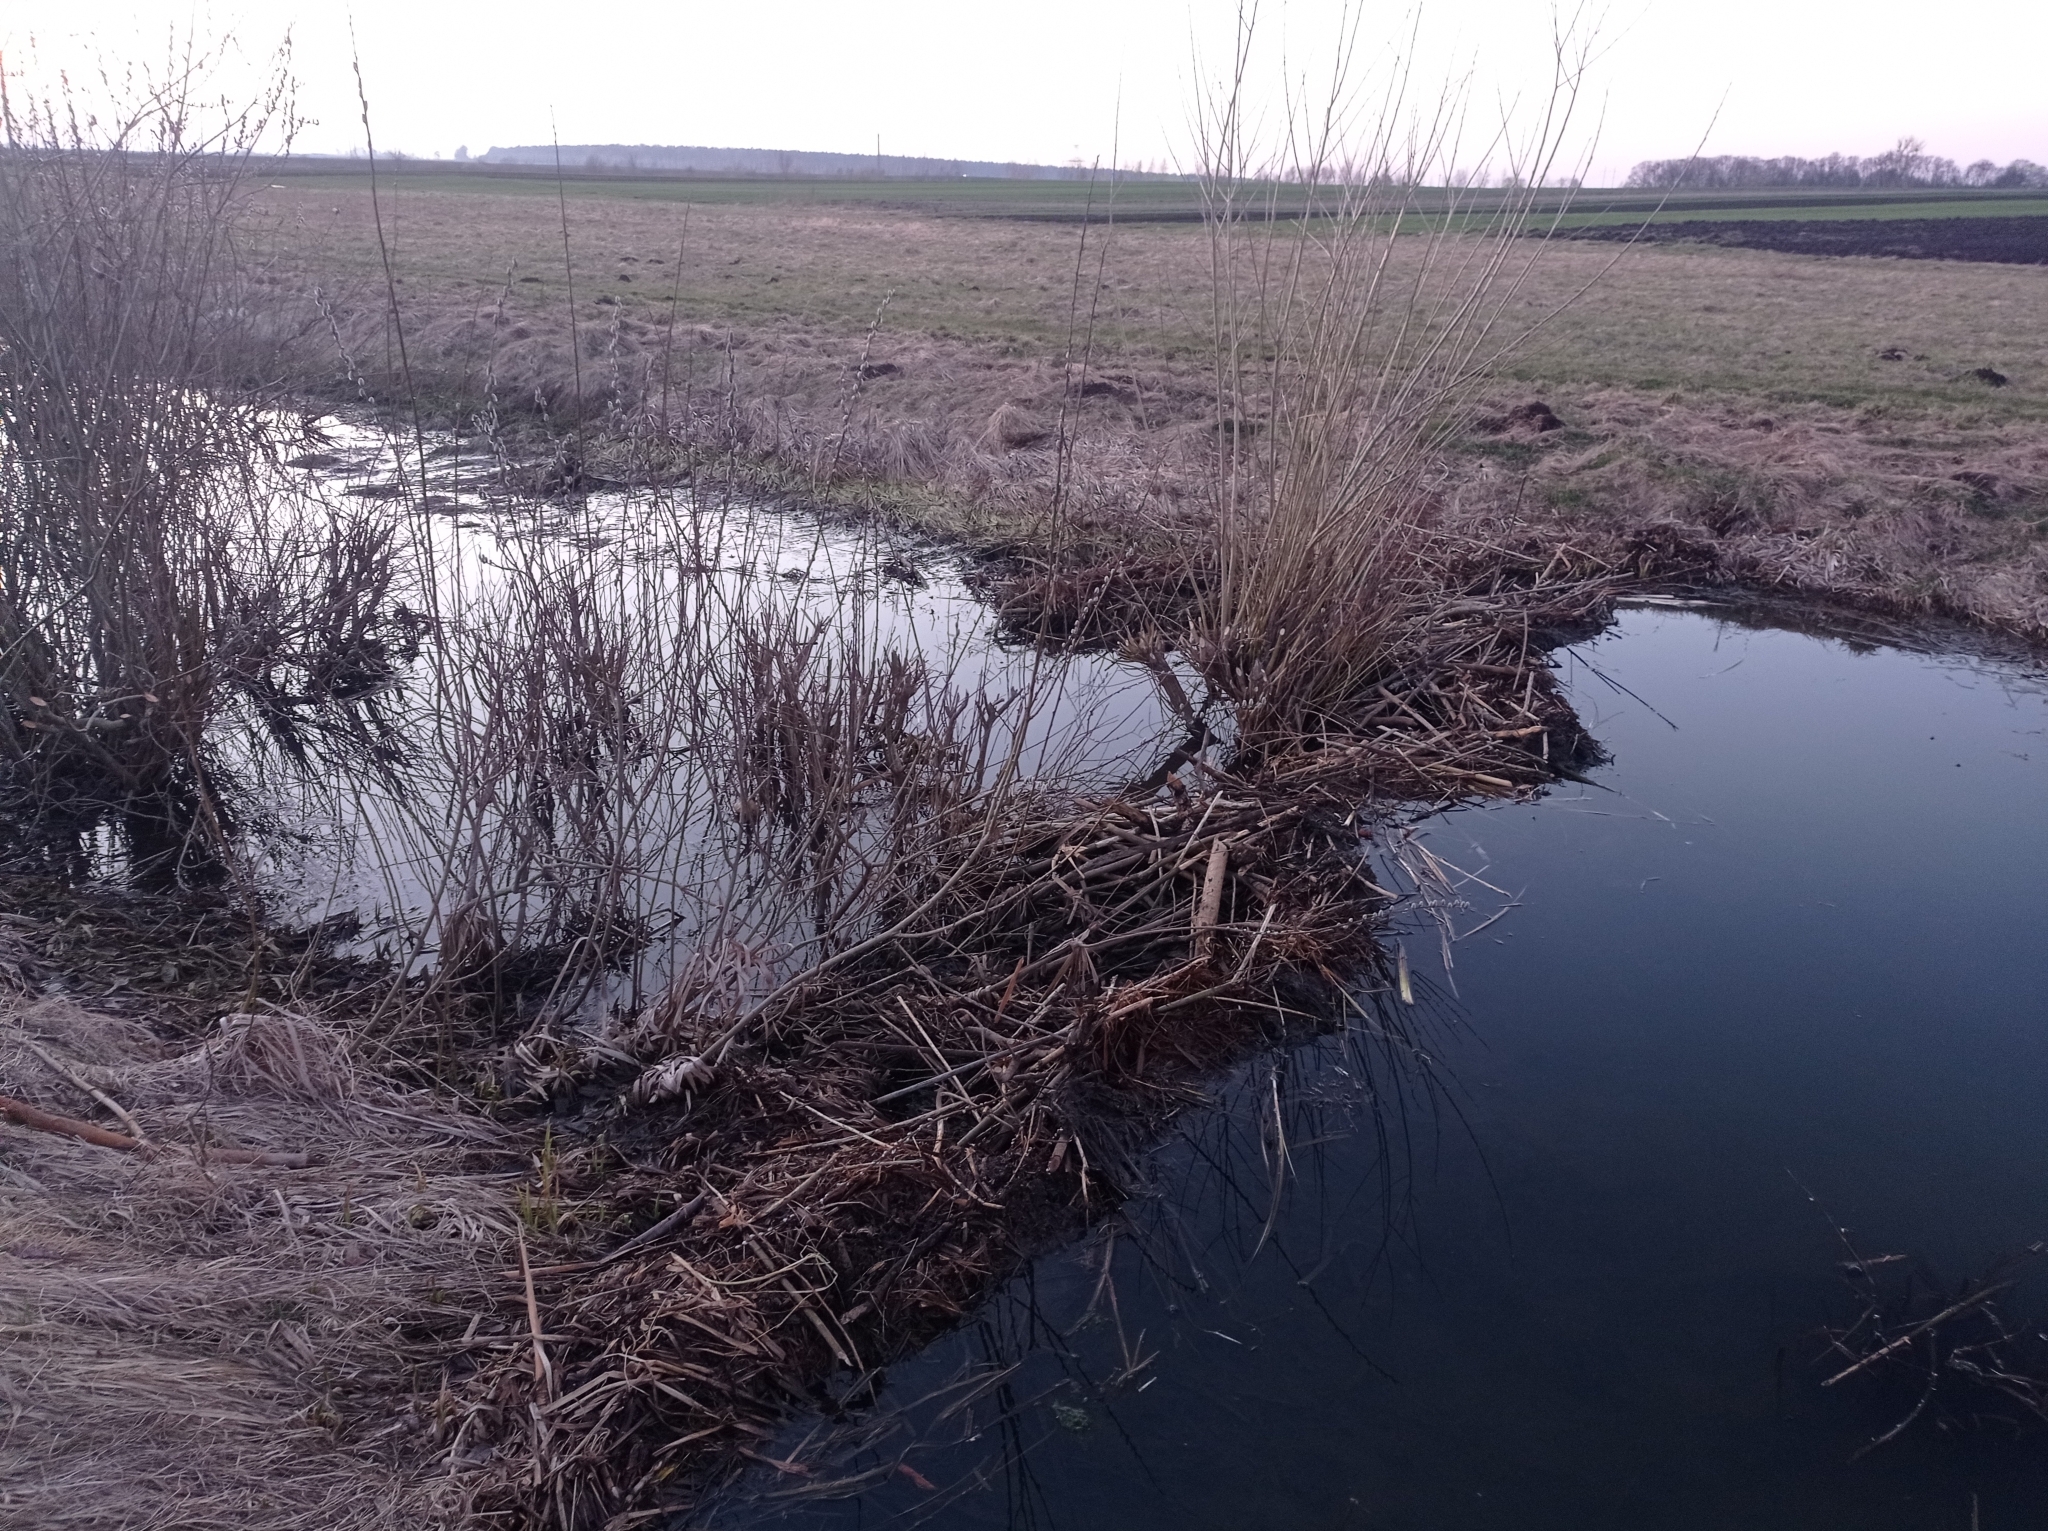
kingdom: Animalia
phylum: Chordata
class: Mammalia
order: Rodentia
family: Castoridae
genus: Castor
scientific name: Castor fiber
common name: Eurasian beaver
